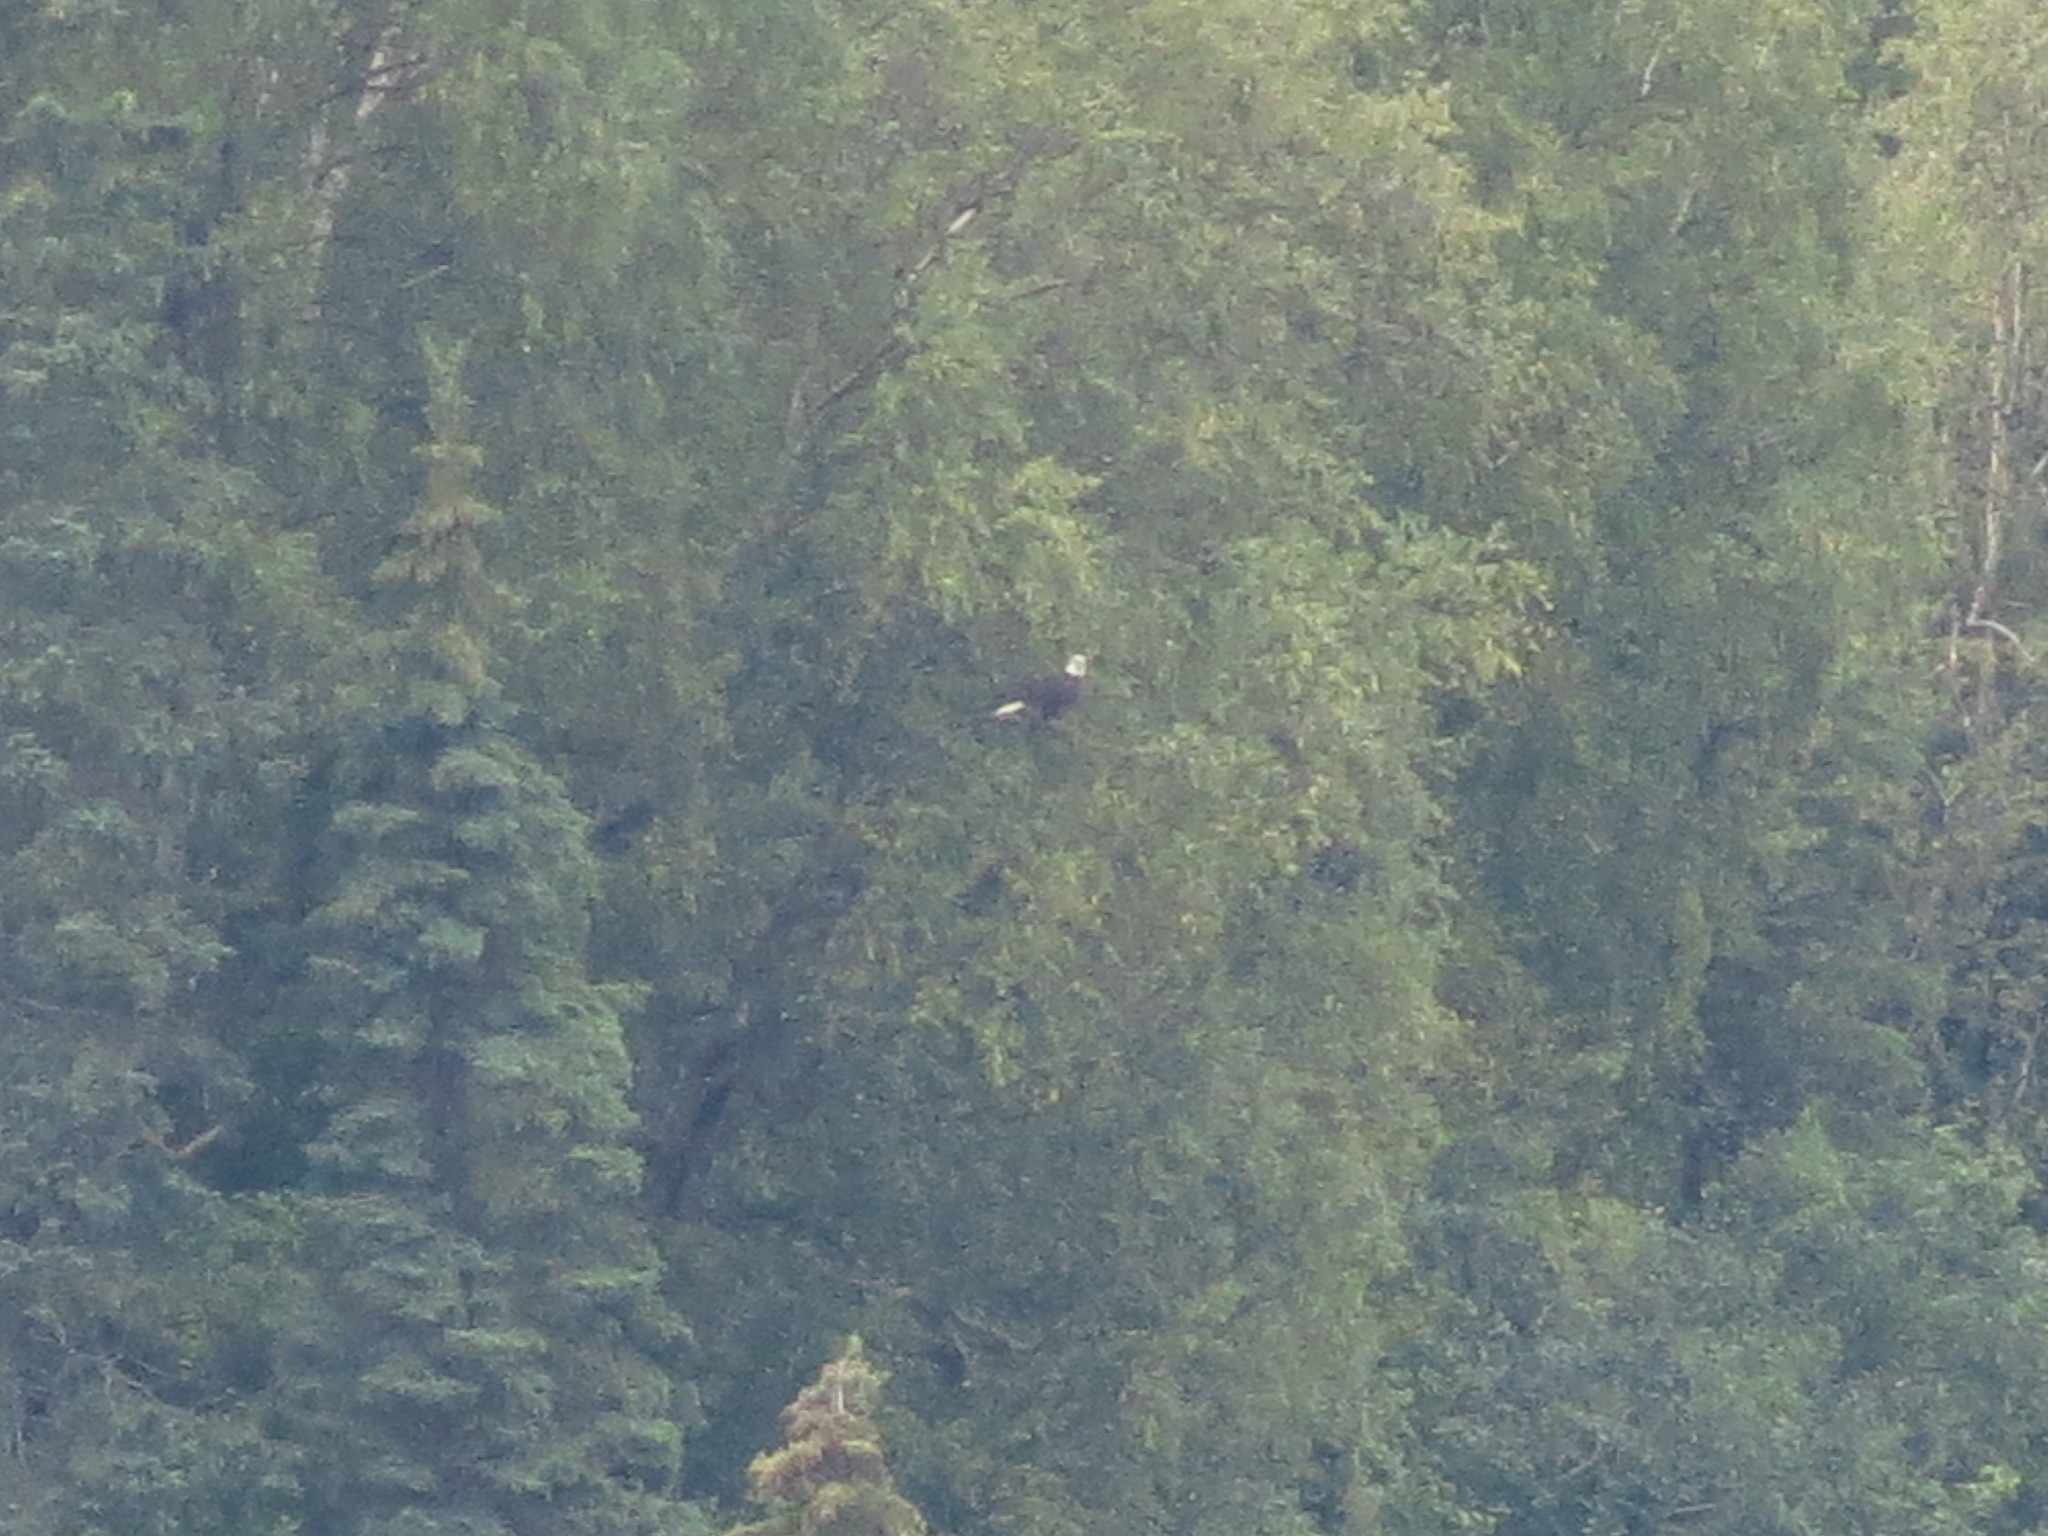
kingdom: Animalia
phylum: Chordata
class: Aves
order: Accipitriformes
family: Accipitridae
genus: Haliaeetus
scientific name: Haliaeetus leucocephalus
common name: Bald eagle
